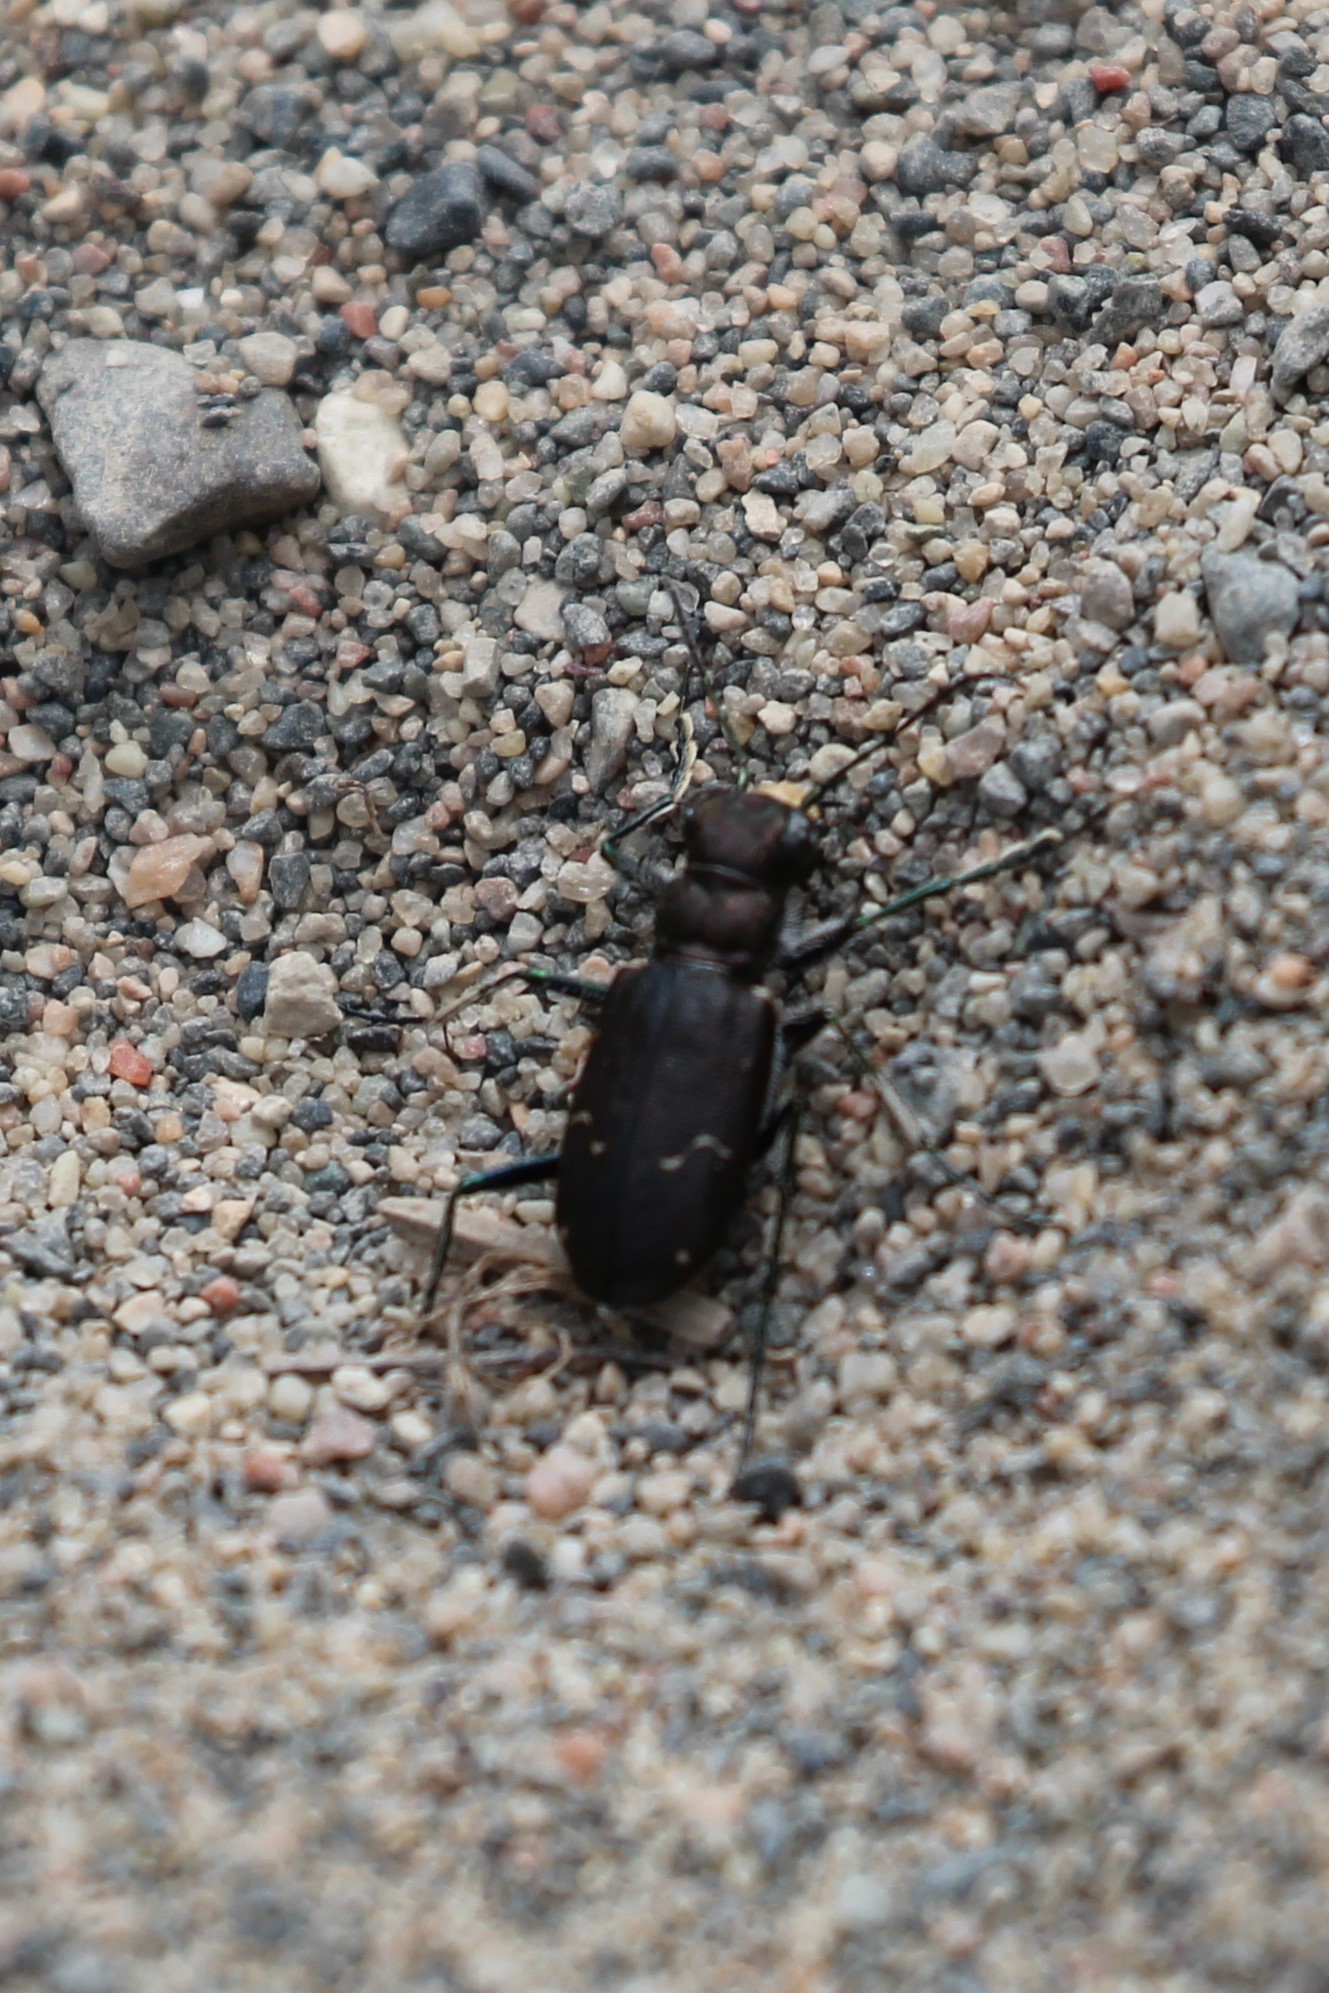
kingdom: Animalia
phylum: Arthropoda
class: Insecta
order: Coleoptera
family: Carabidae
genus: Cicindela
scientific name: Cicindela longilabris
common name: Boreal long-lipped tiger beetle
